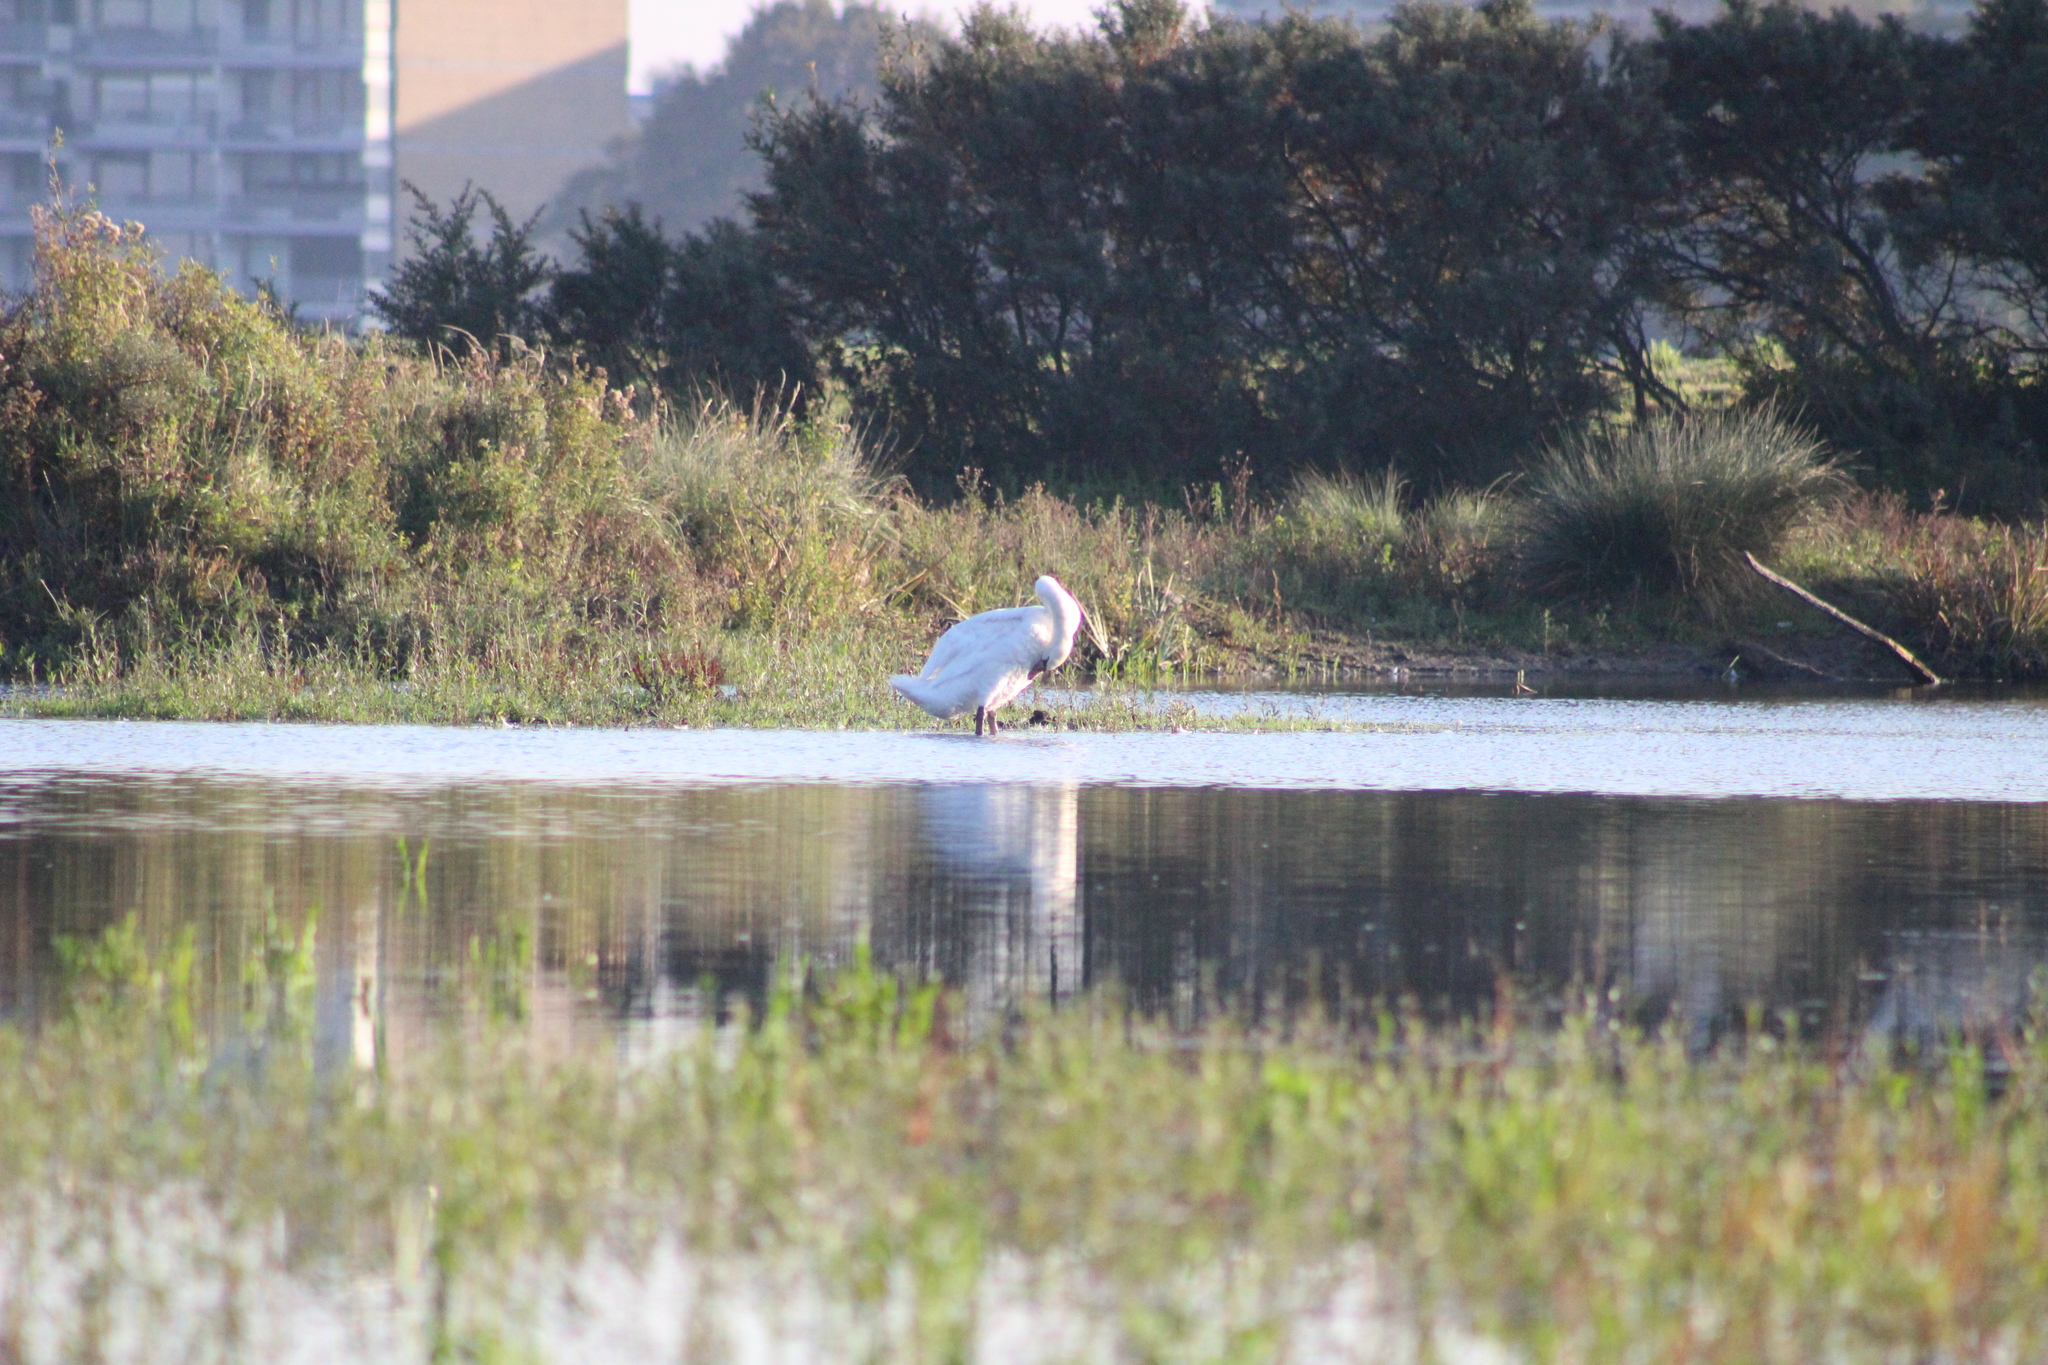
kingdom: Animalia
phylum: Chordata
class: Aves
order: Anseriformes
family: Anatidae
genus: Cygnus
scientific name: Cygnus olor
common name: Mute swan
